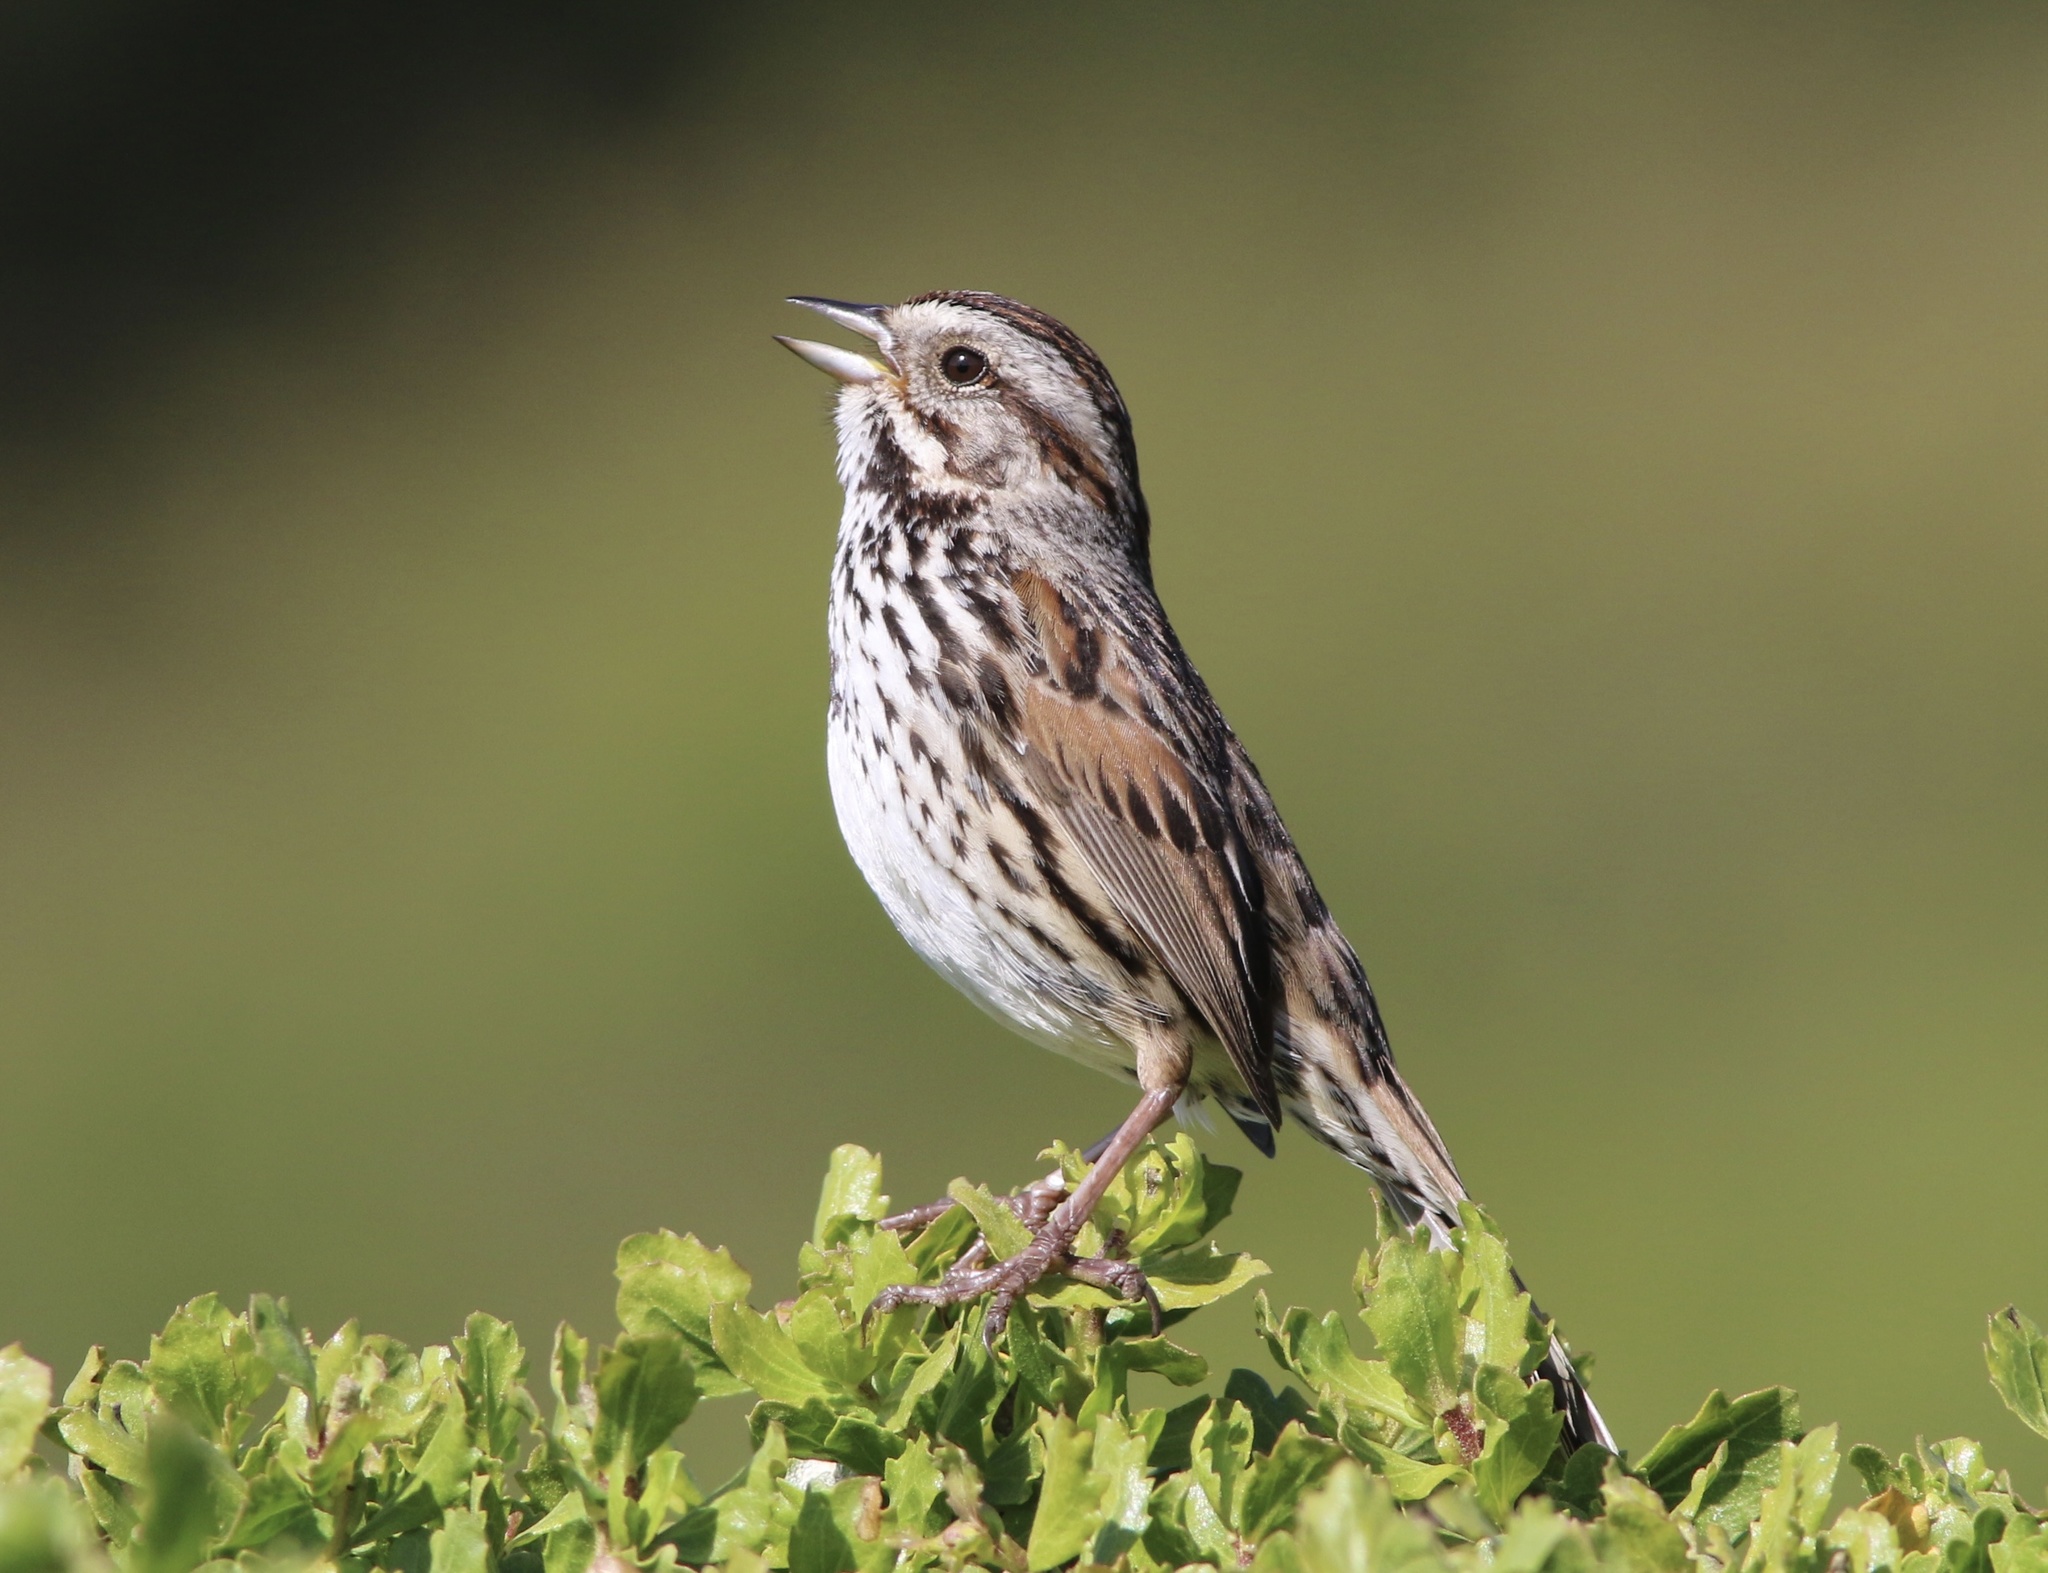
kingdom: Animalia
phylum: Chordata
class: Aves
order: Passeriformes
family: Passerellidae
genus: Melospiza
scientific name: Melospiza melodia
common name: Song sparrow
